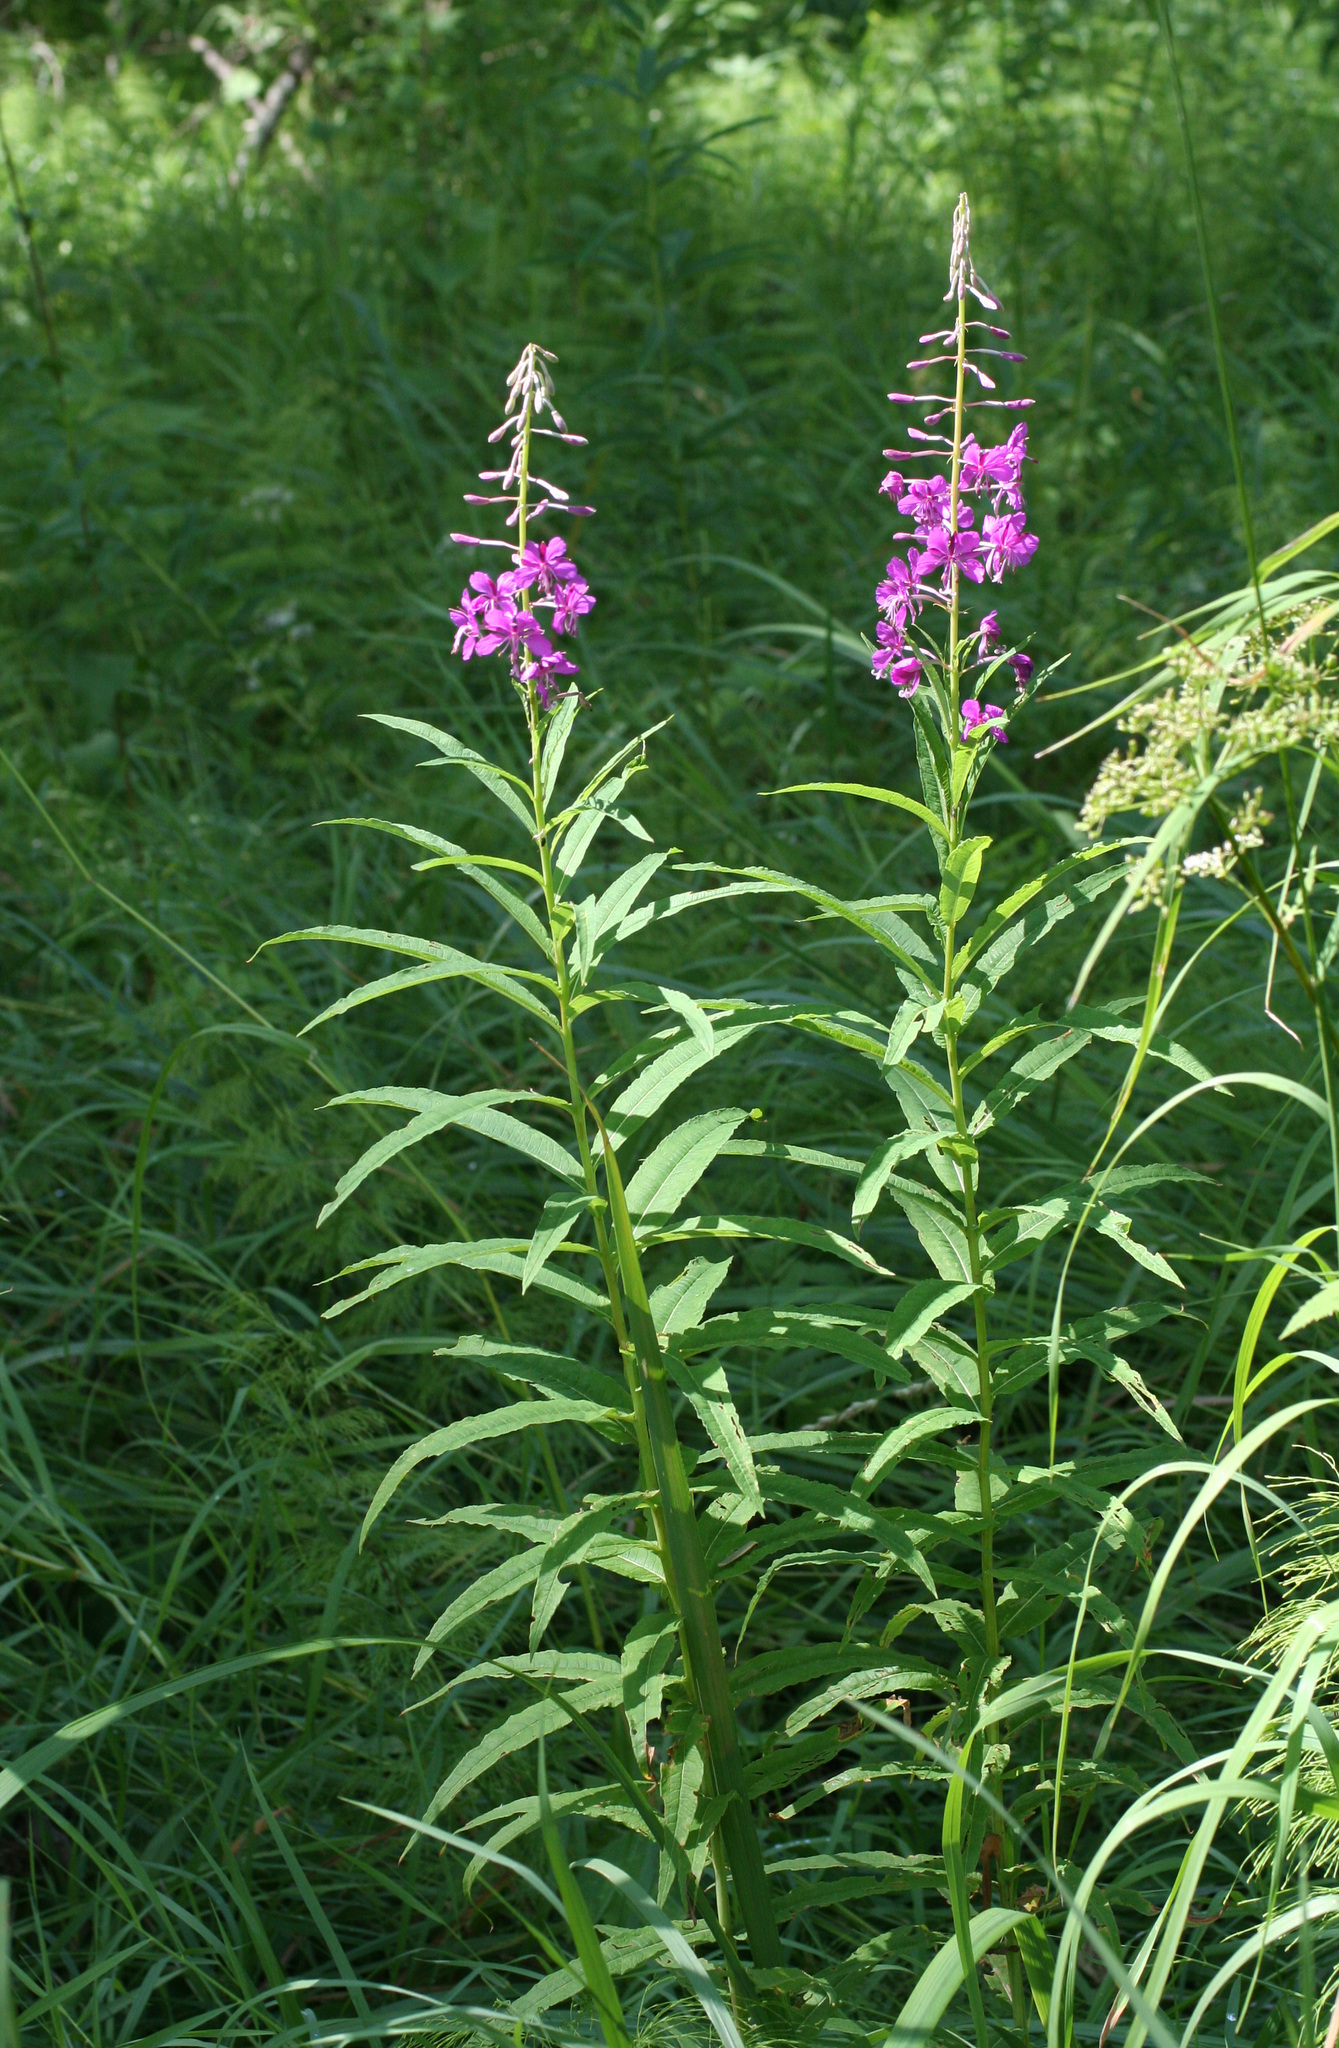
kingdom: Plantae
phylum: Tracheophyta
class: Magnoliopsida
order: Myrtales
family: Onagraceae
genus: Chamaenerion
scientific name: Chamaenerion angustifolium
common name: Fireweed
